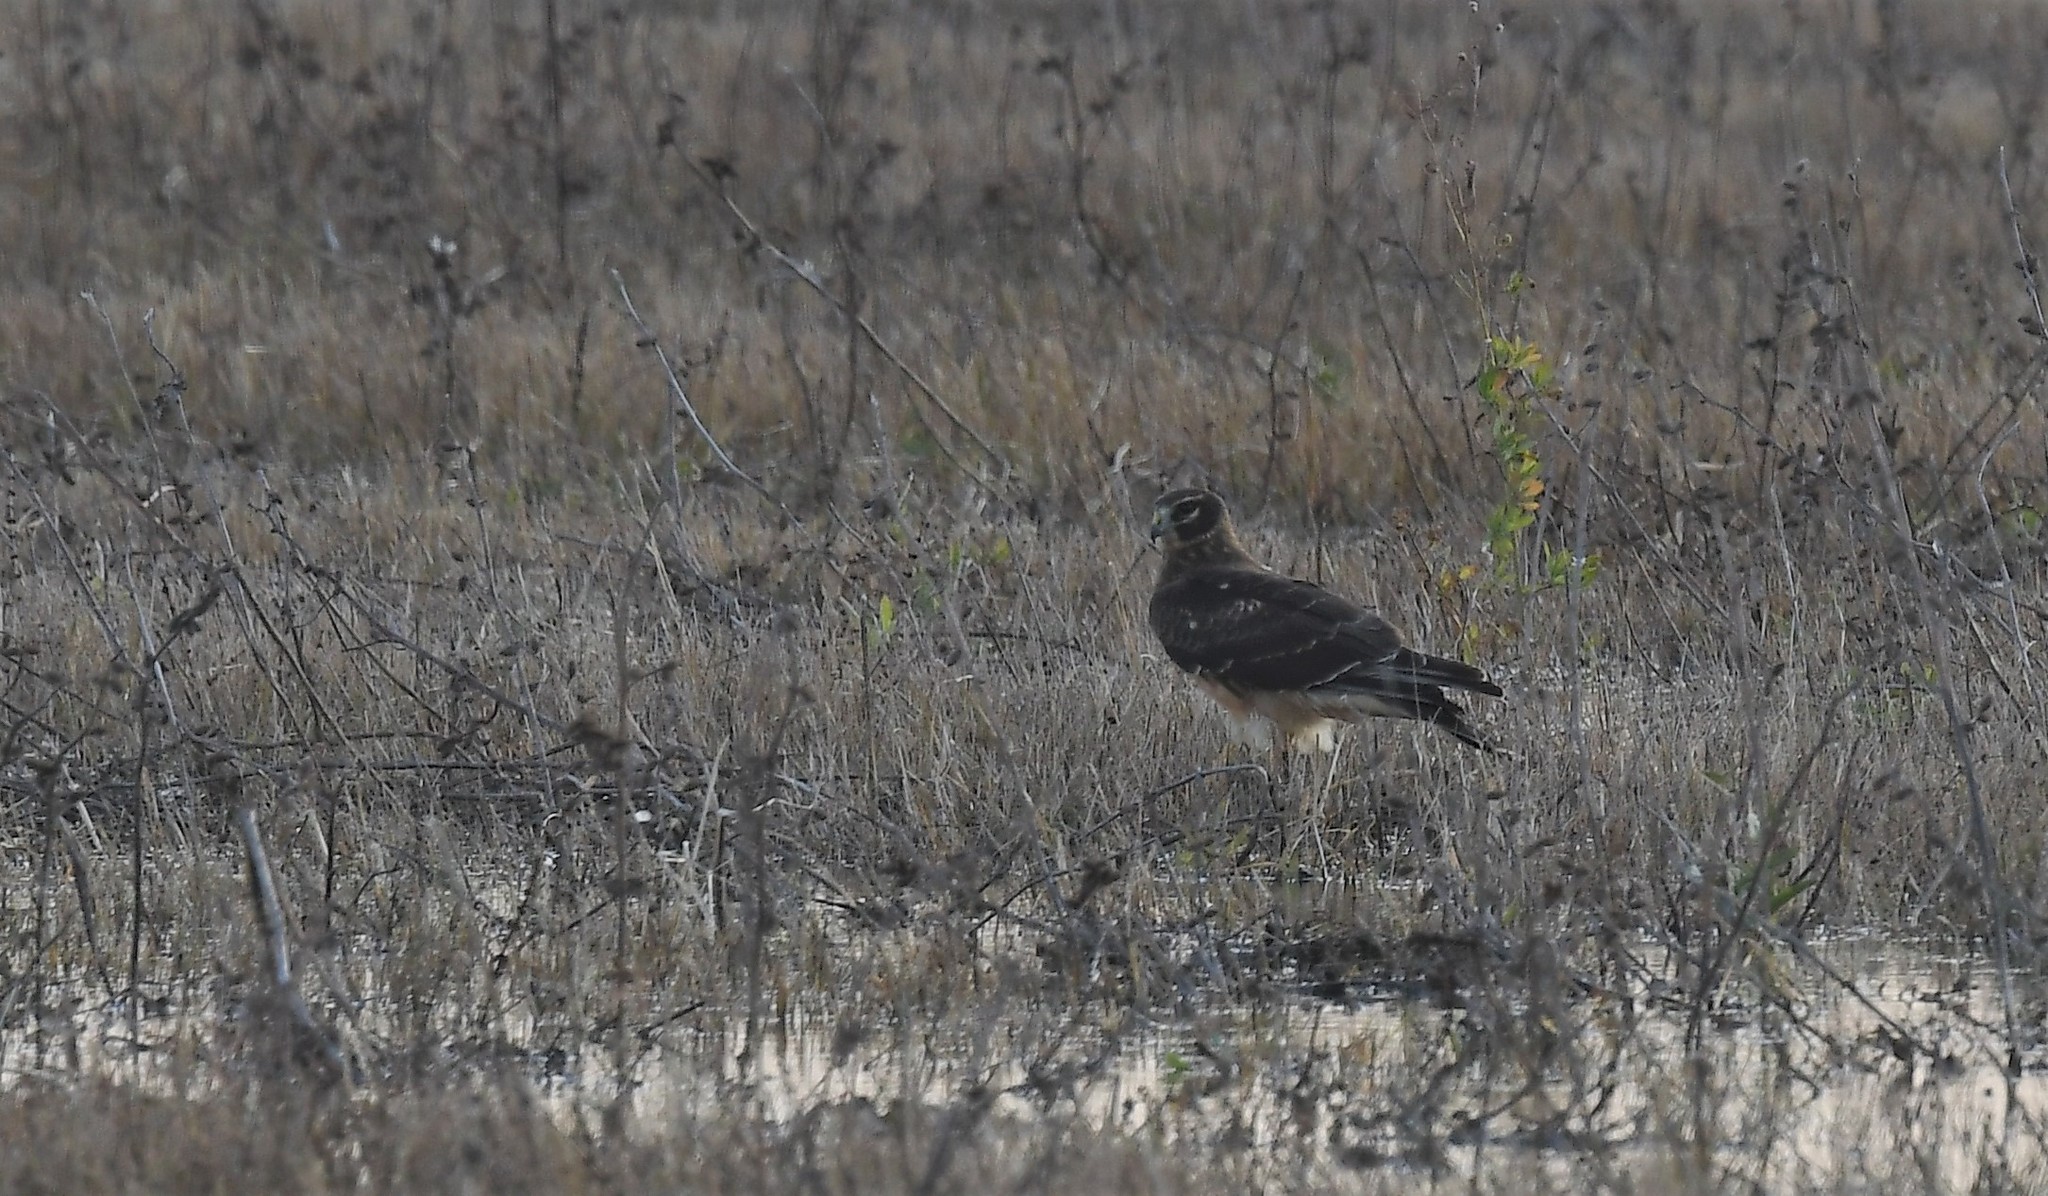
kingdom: Animalia
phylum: Chordata
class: Aves
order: Accipitriformes
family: Accipitridae
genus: Circus
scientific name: Circus cyaneus
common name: Hen harrier
